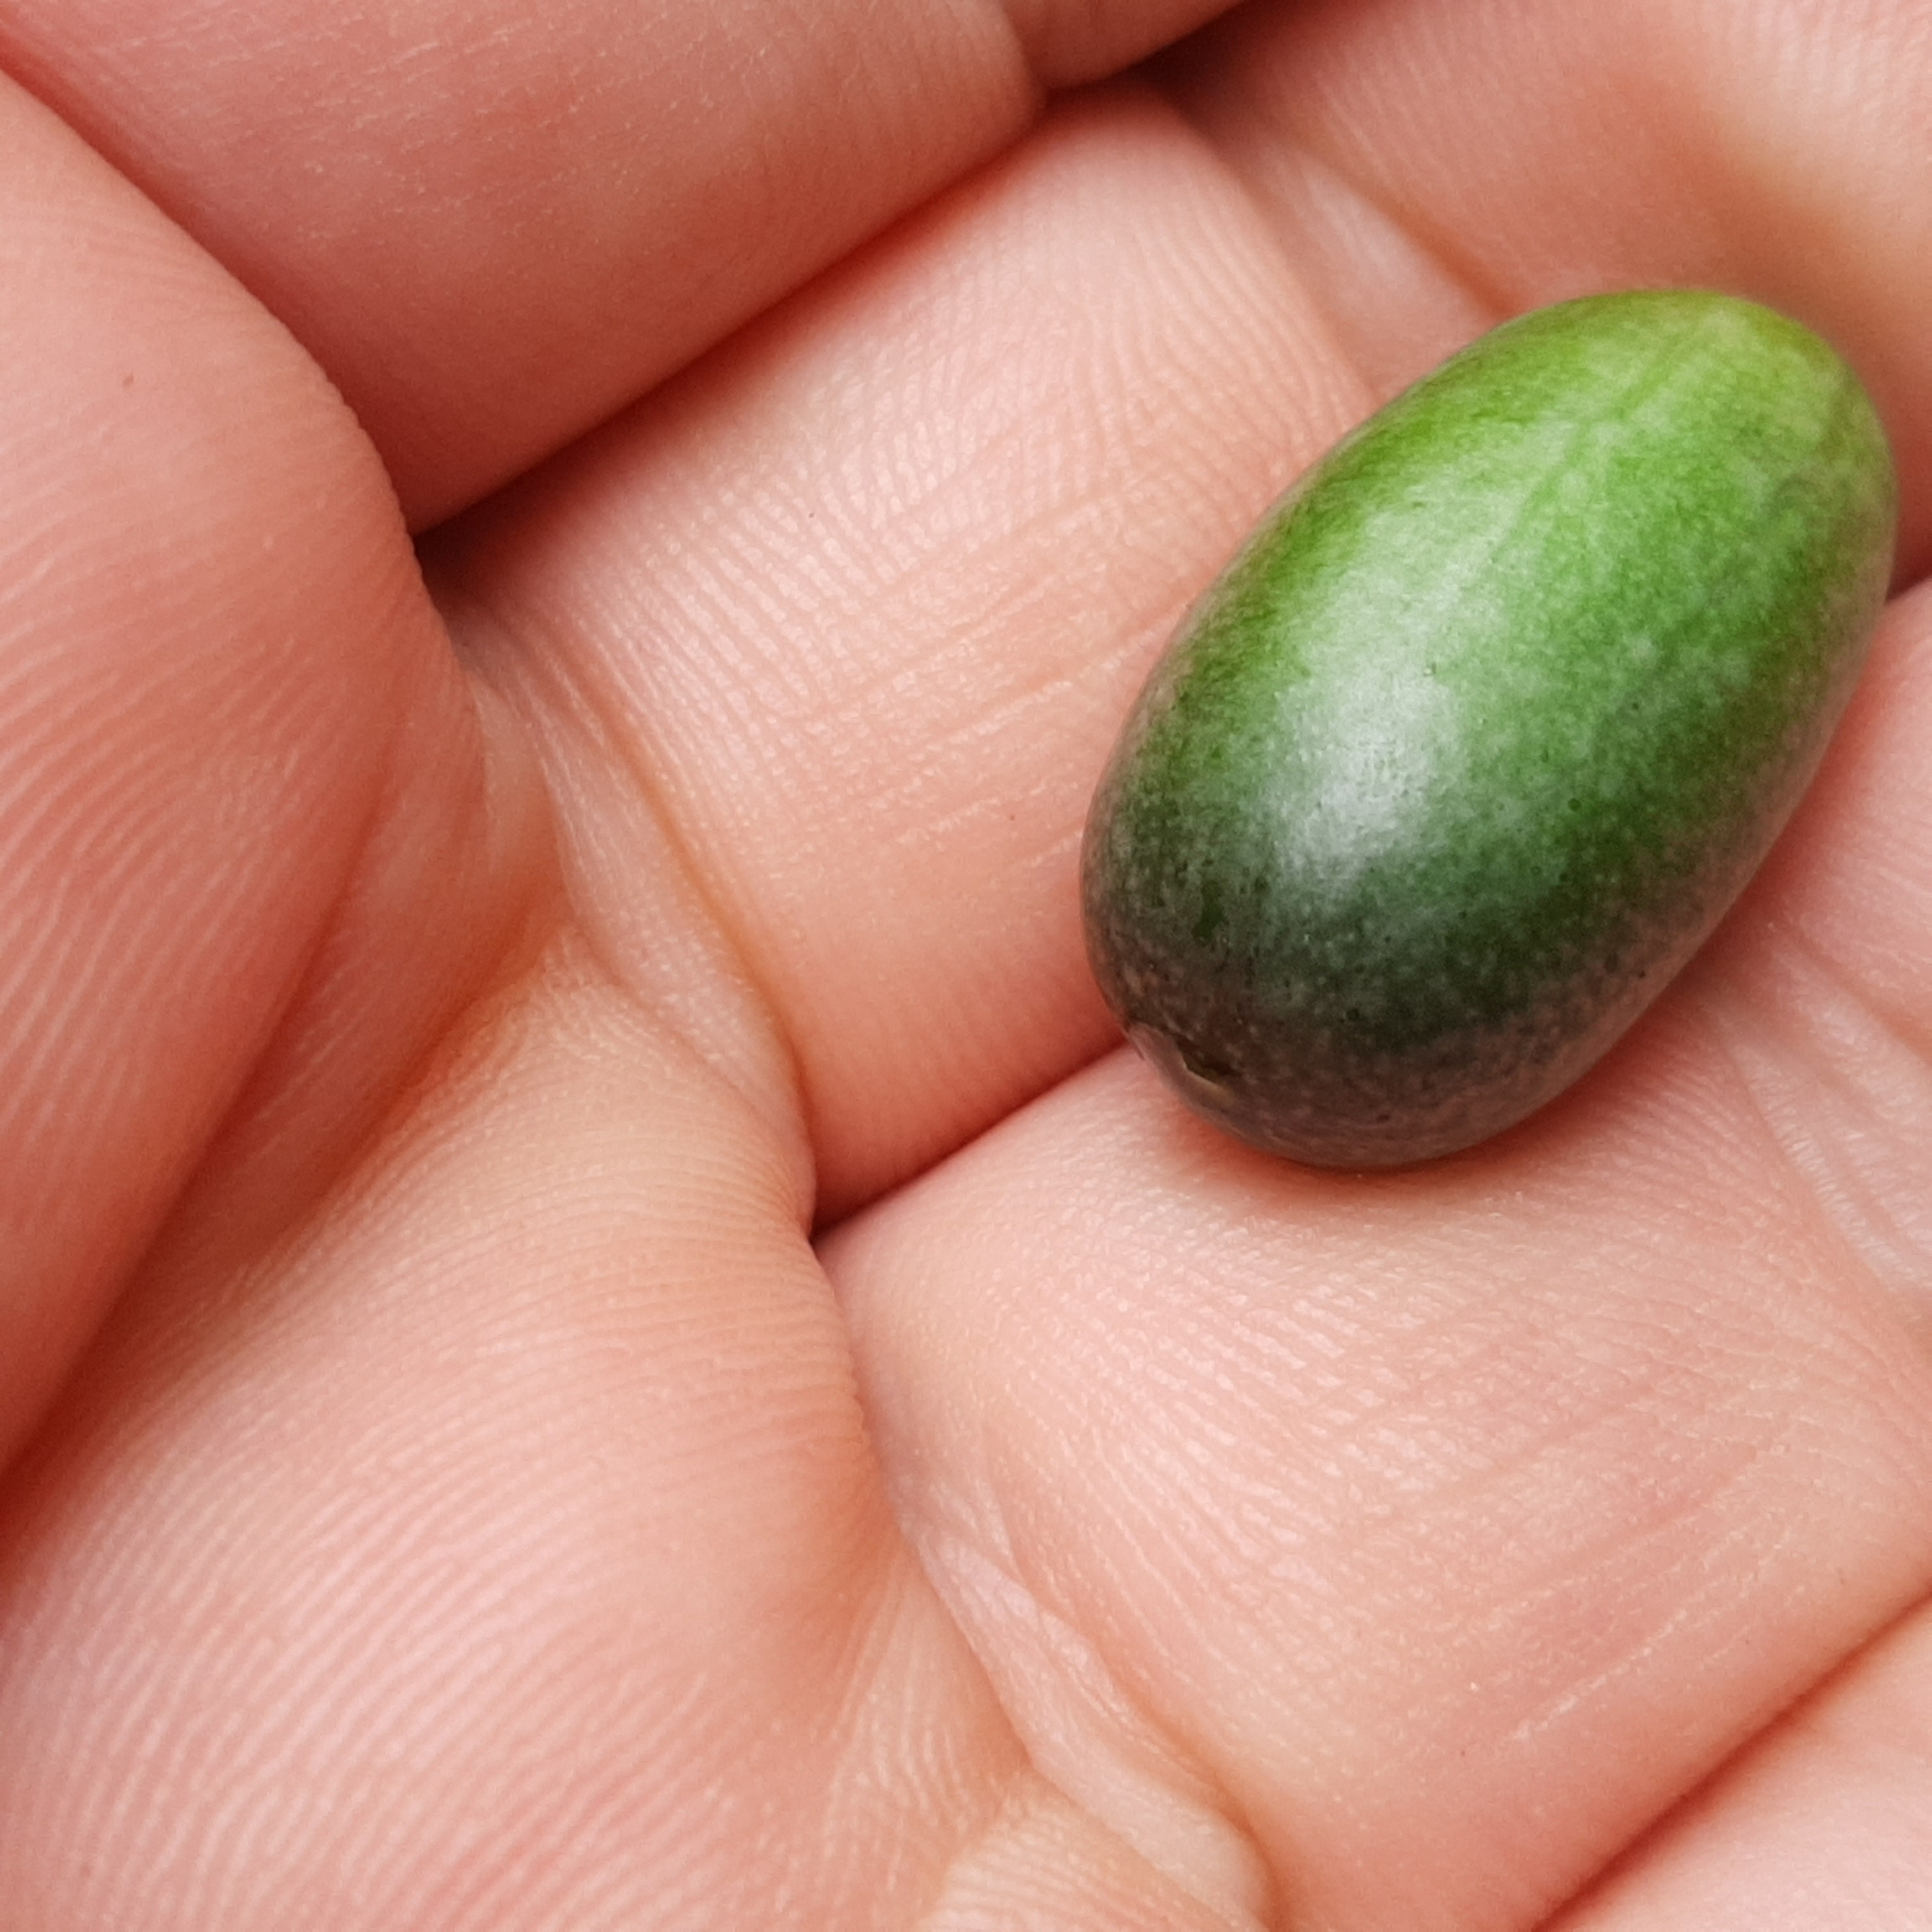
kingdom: Plantae
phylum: Tracheophyta
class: Magnoliopsida
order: Cucurbitales
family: Cucurbitaceae
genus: Melothria
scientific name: Melothria pendula
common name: Creeping-cucumber
